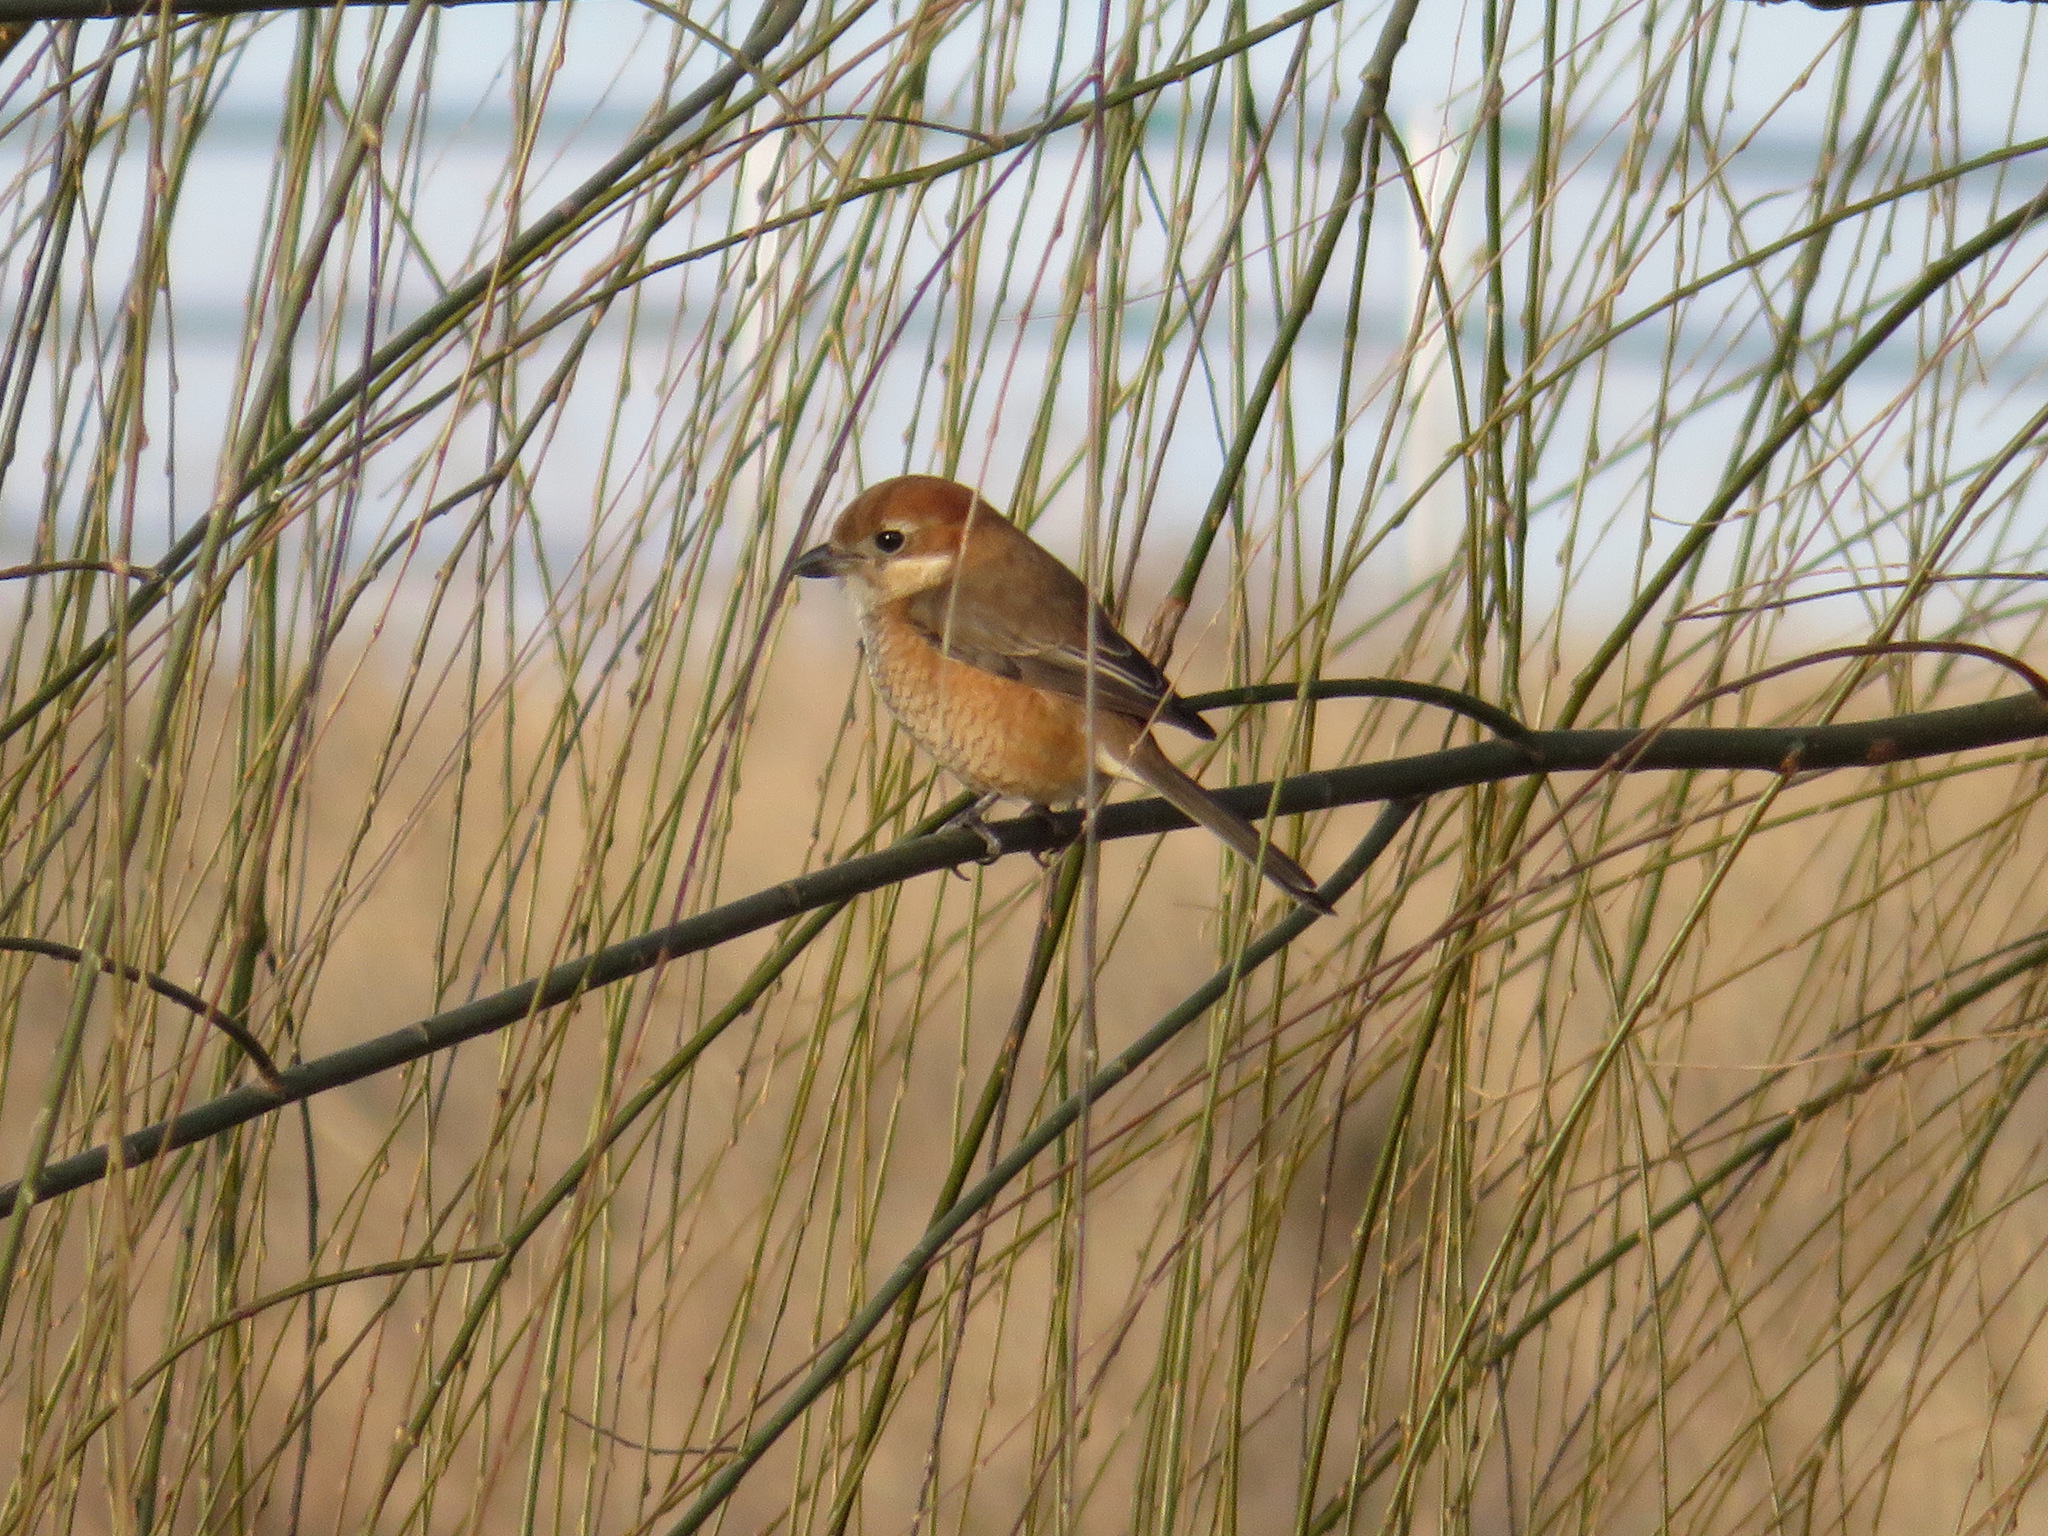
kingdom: Animalia
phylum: Chordata
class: Aves
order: Passeriformes
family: Laniidae
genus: Lanius
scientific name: Lanius bucephalus
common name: Bull-headed shrike
